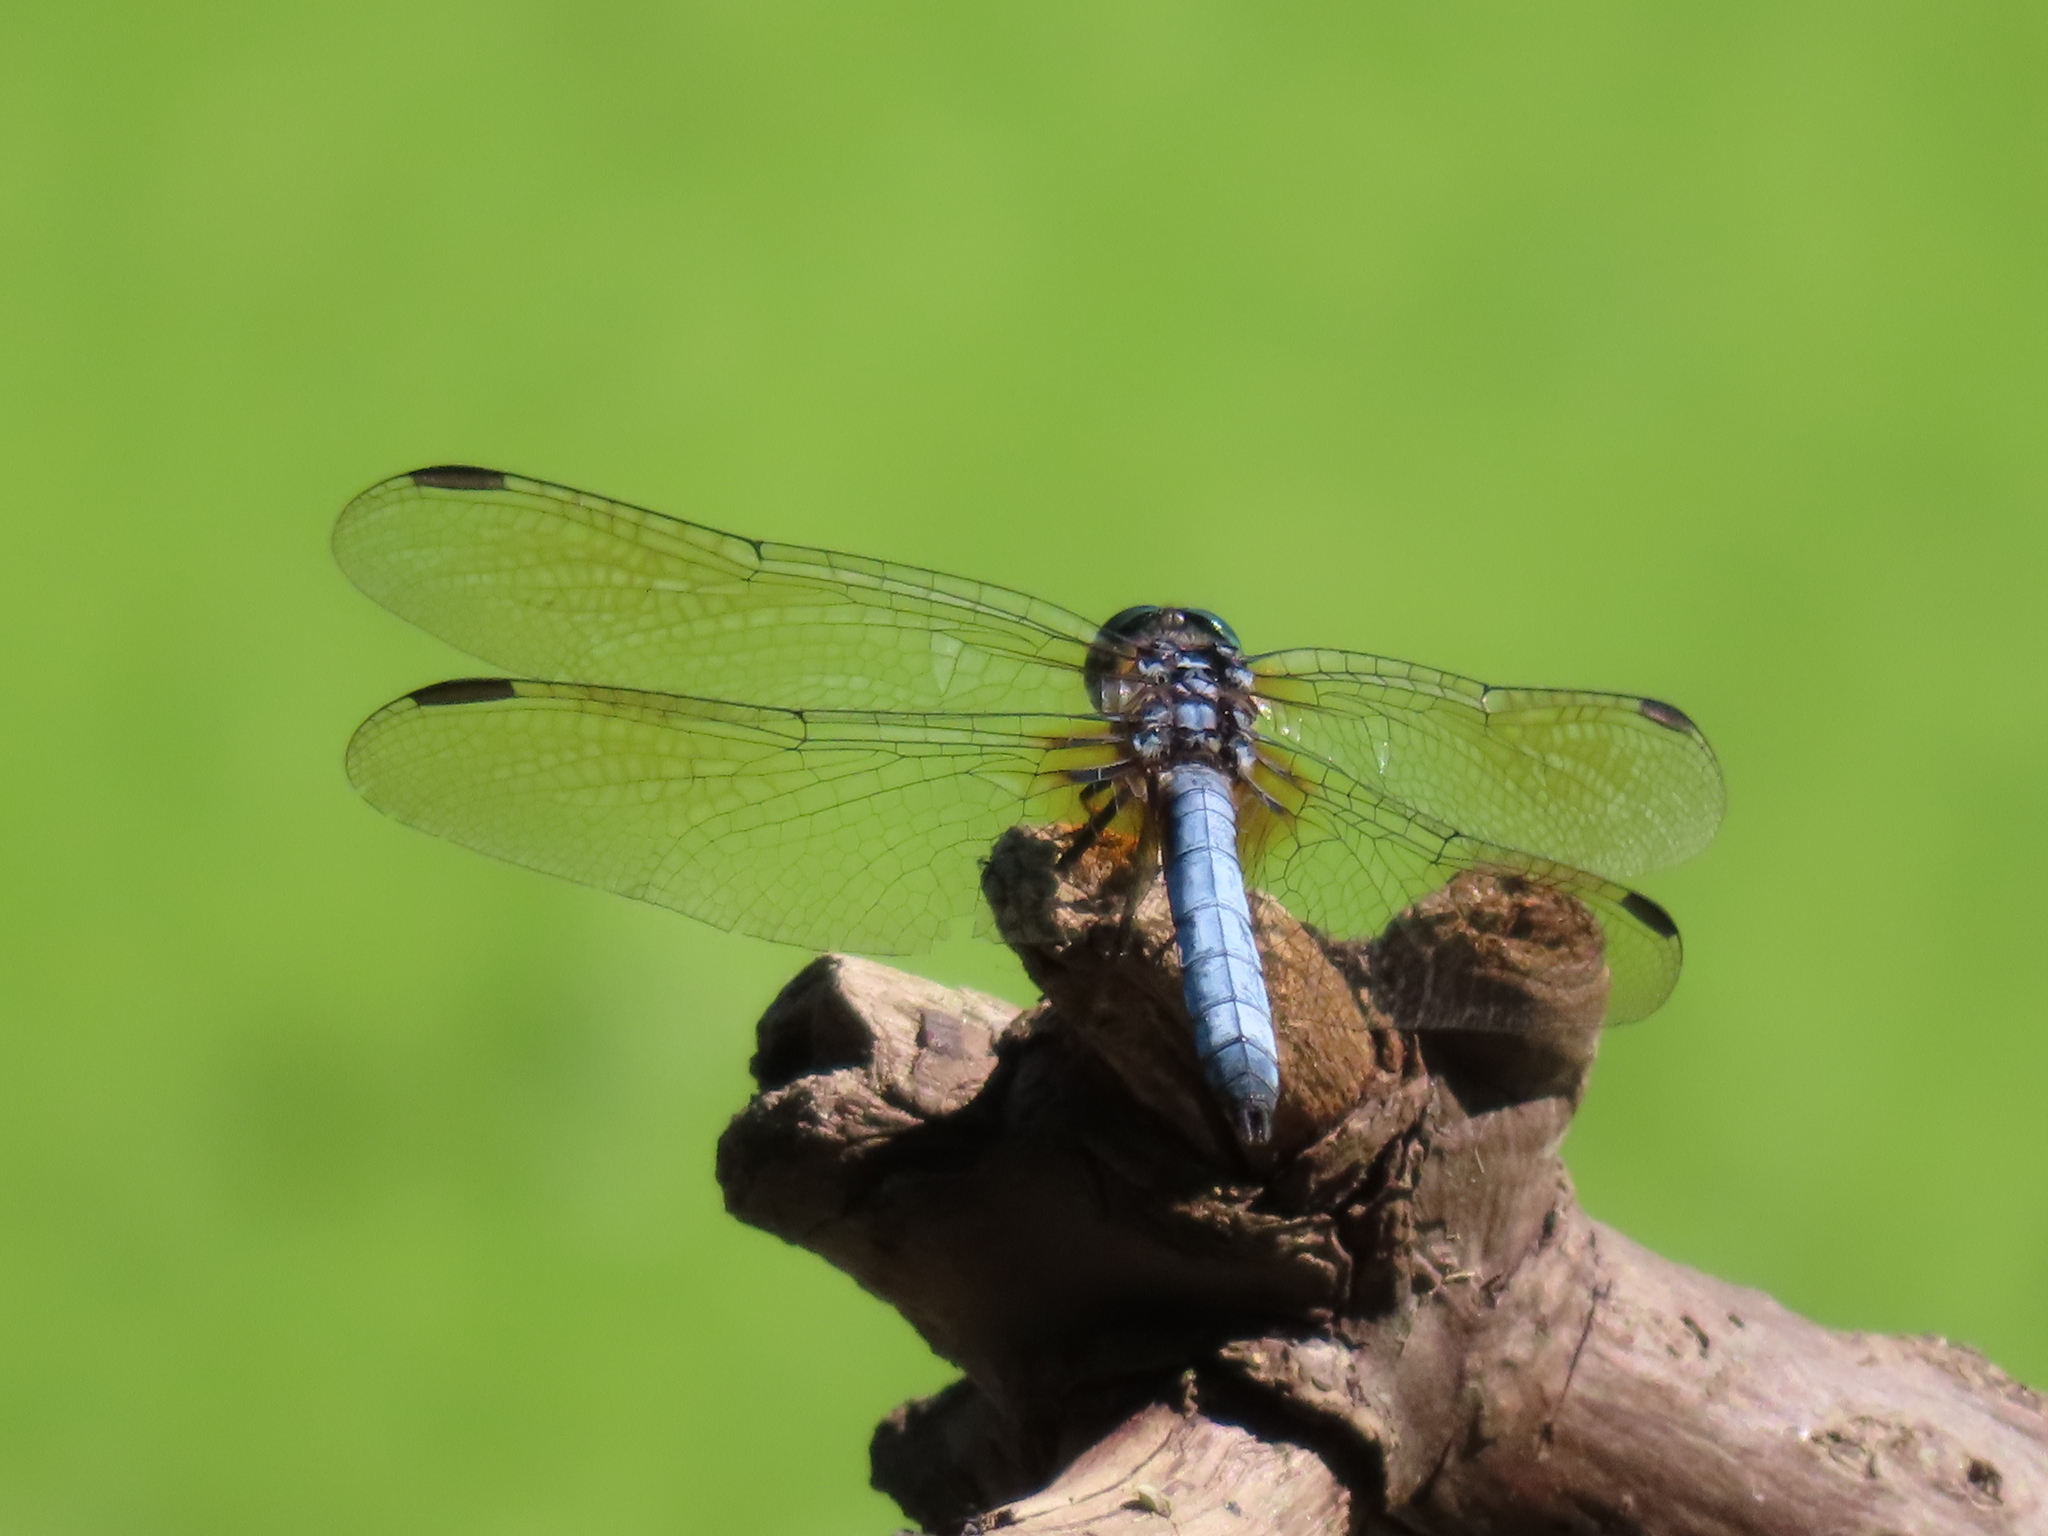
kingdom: Animalia
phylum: Arthropoda
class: Insecta
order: Odonata
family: Libellulidae
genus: Pachydiplax
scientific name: Pachydiplax longipennis
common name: Blue dasher
